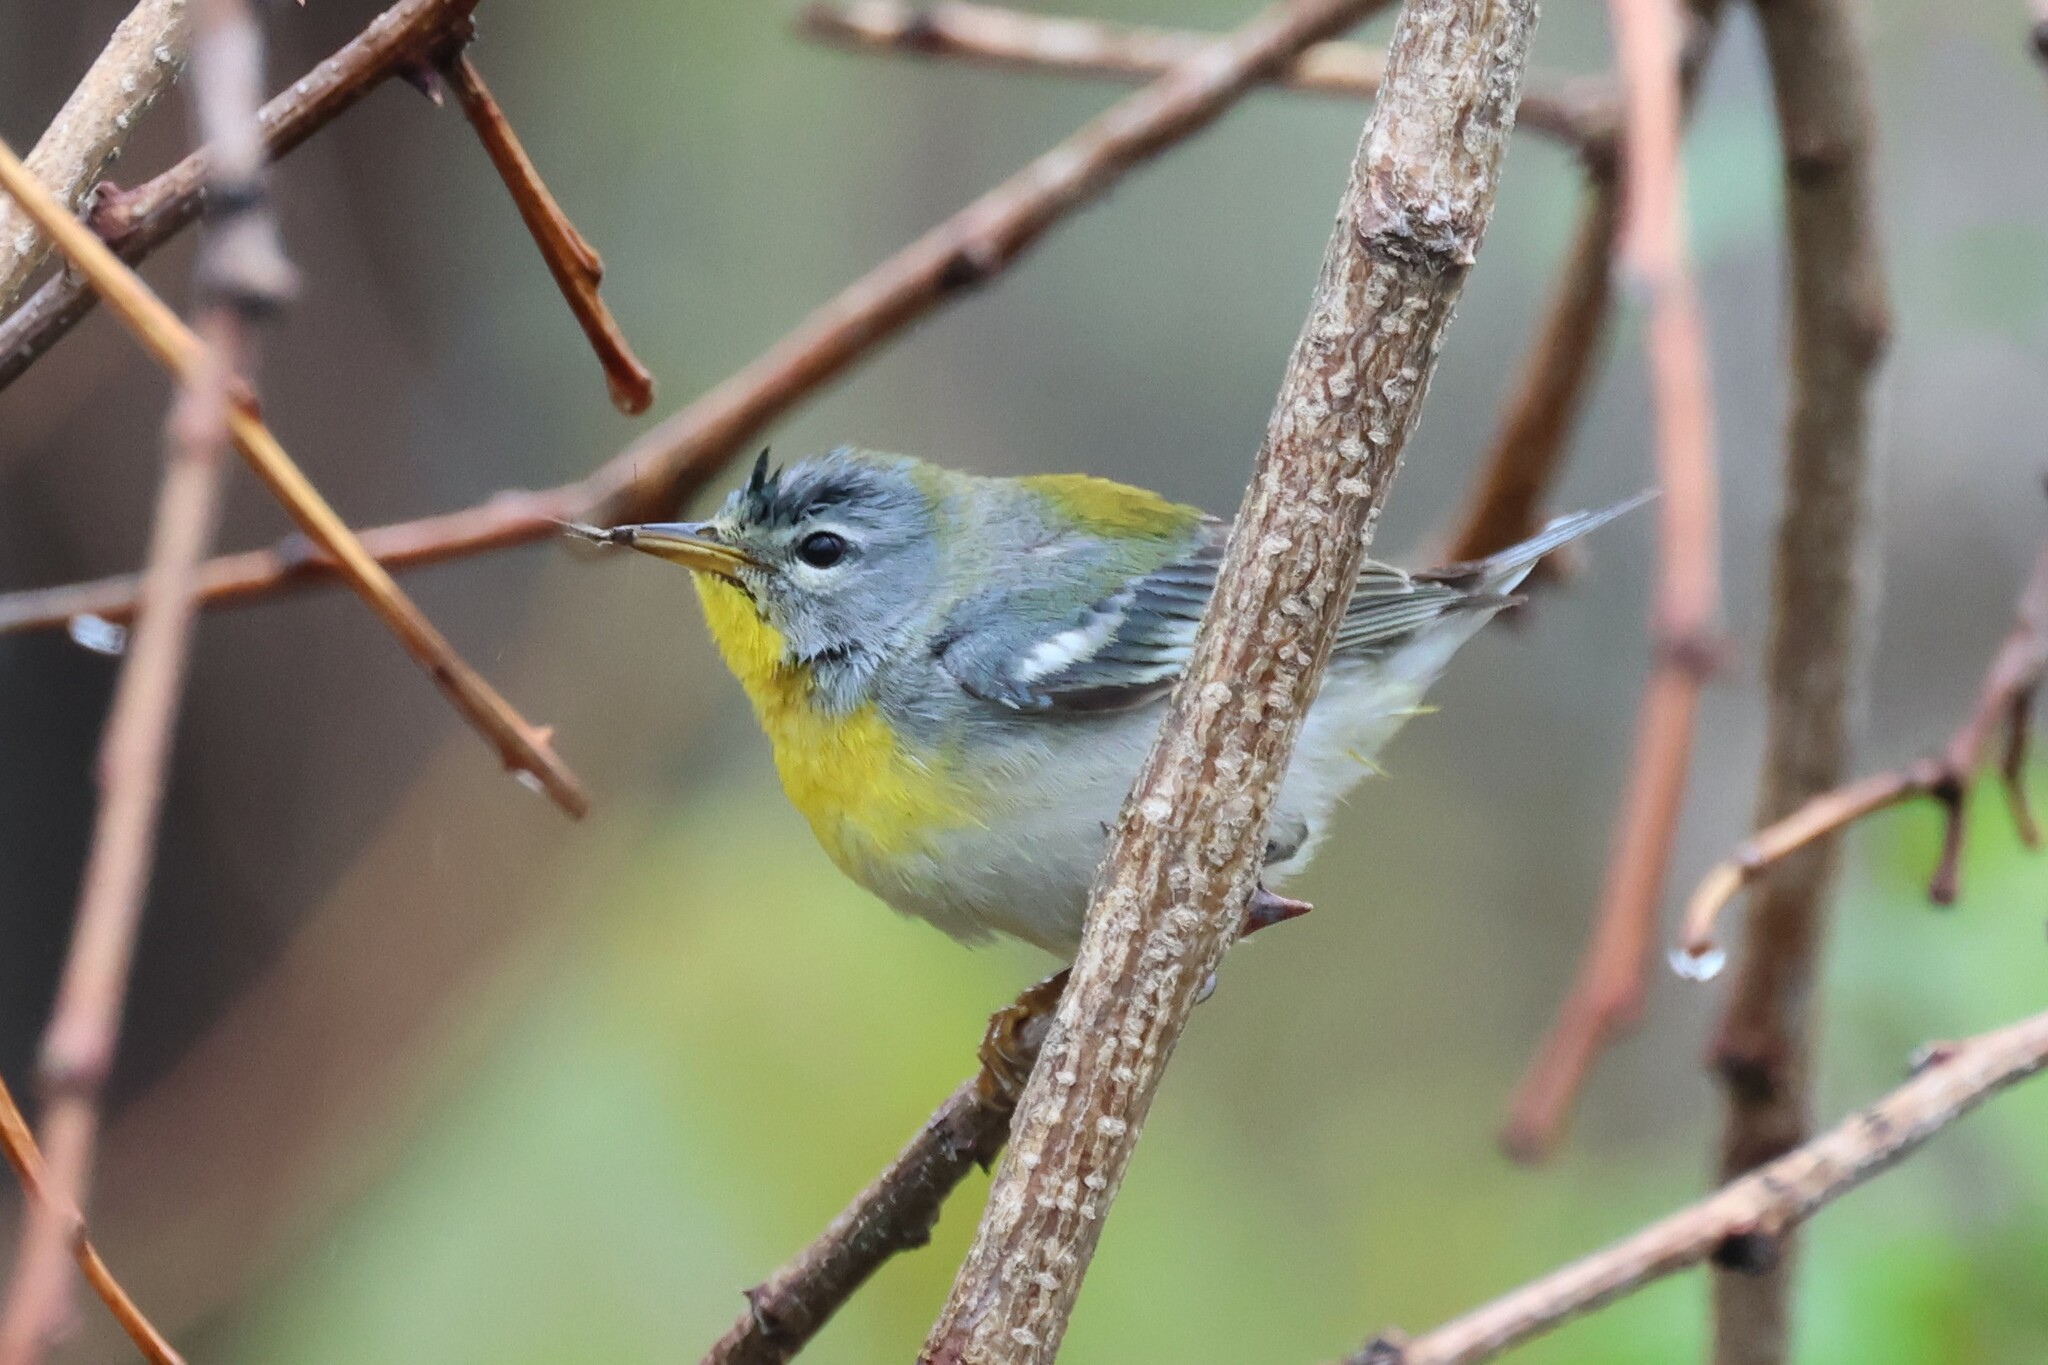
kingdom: Animalia
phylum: Chordata
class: Aves
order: Passeriformes
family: Parulidae
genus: Setophaga
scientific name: Setophaga americana
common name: Northern parula
